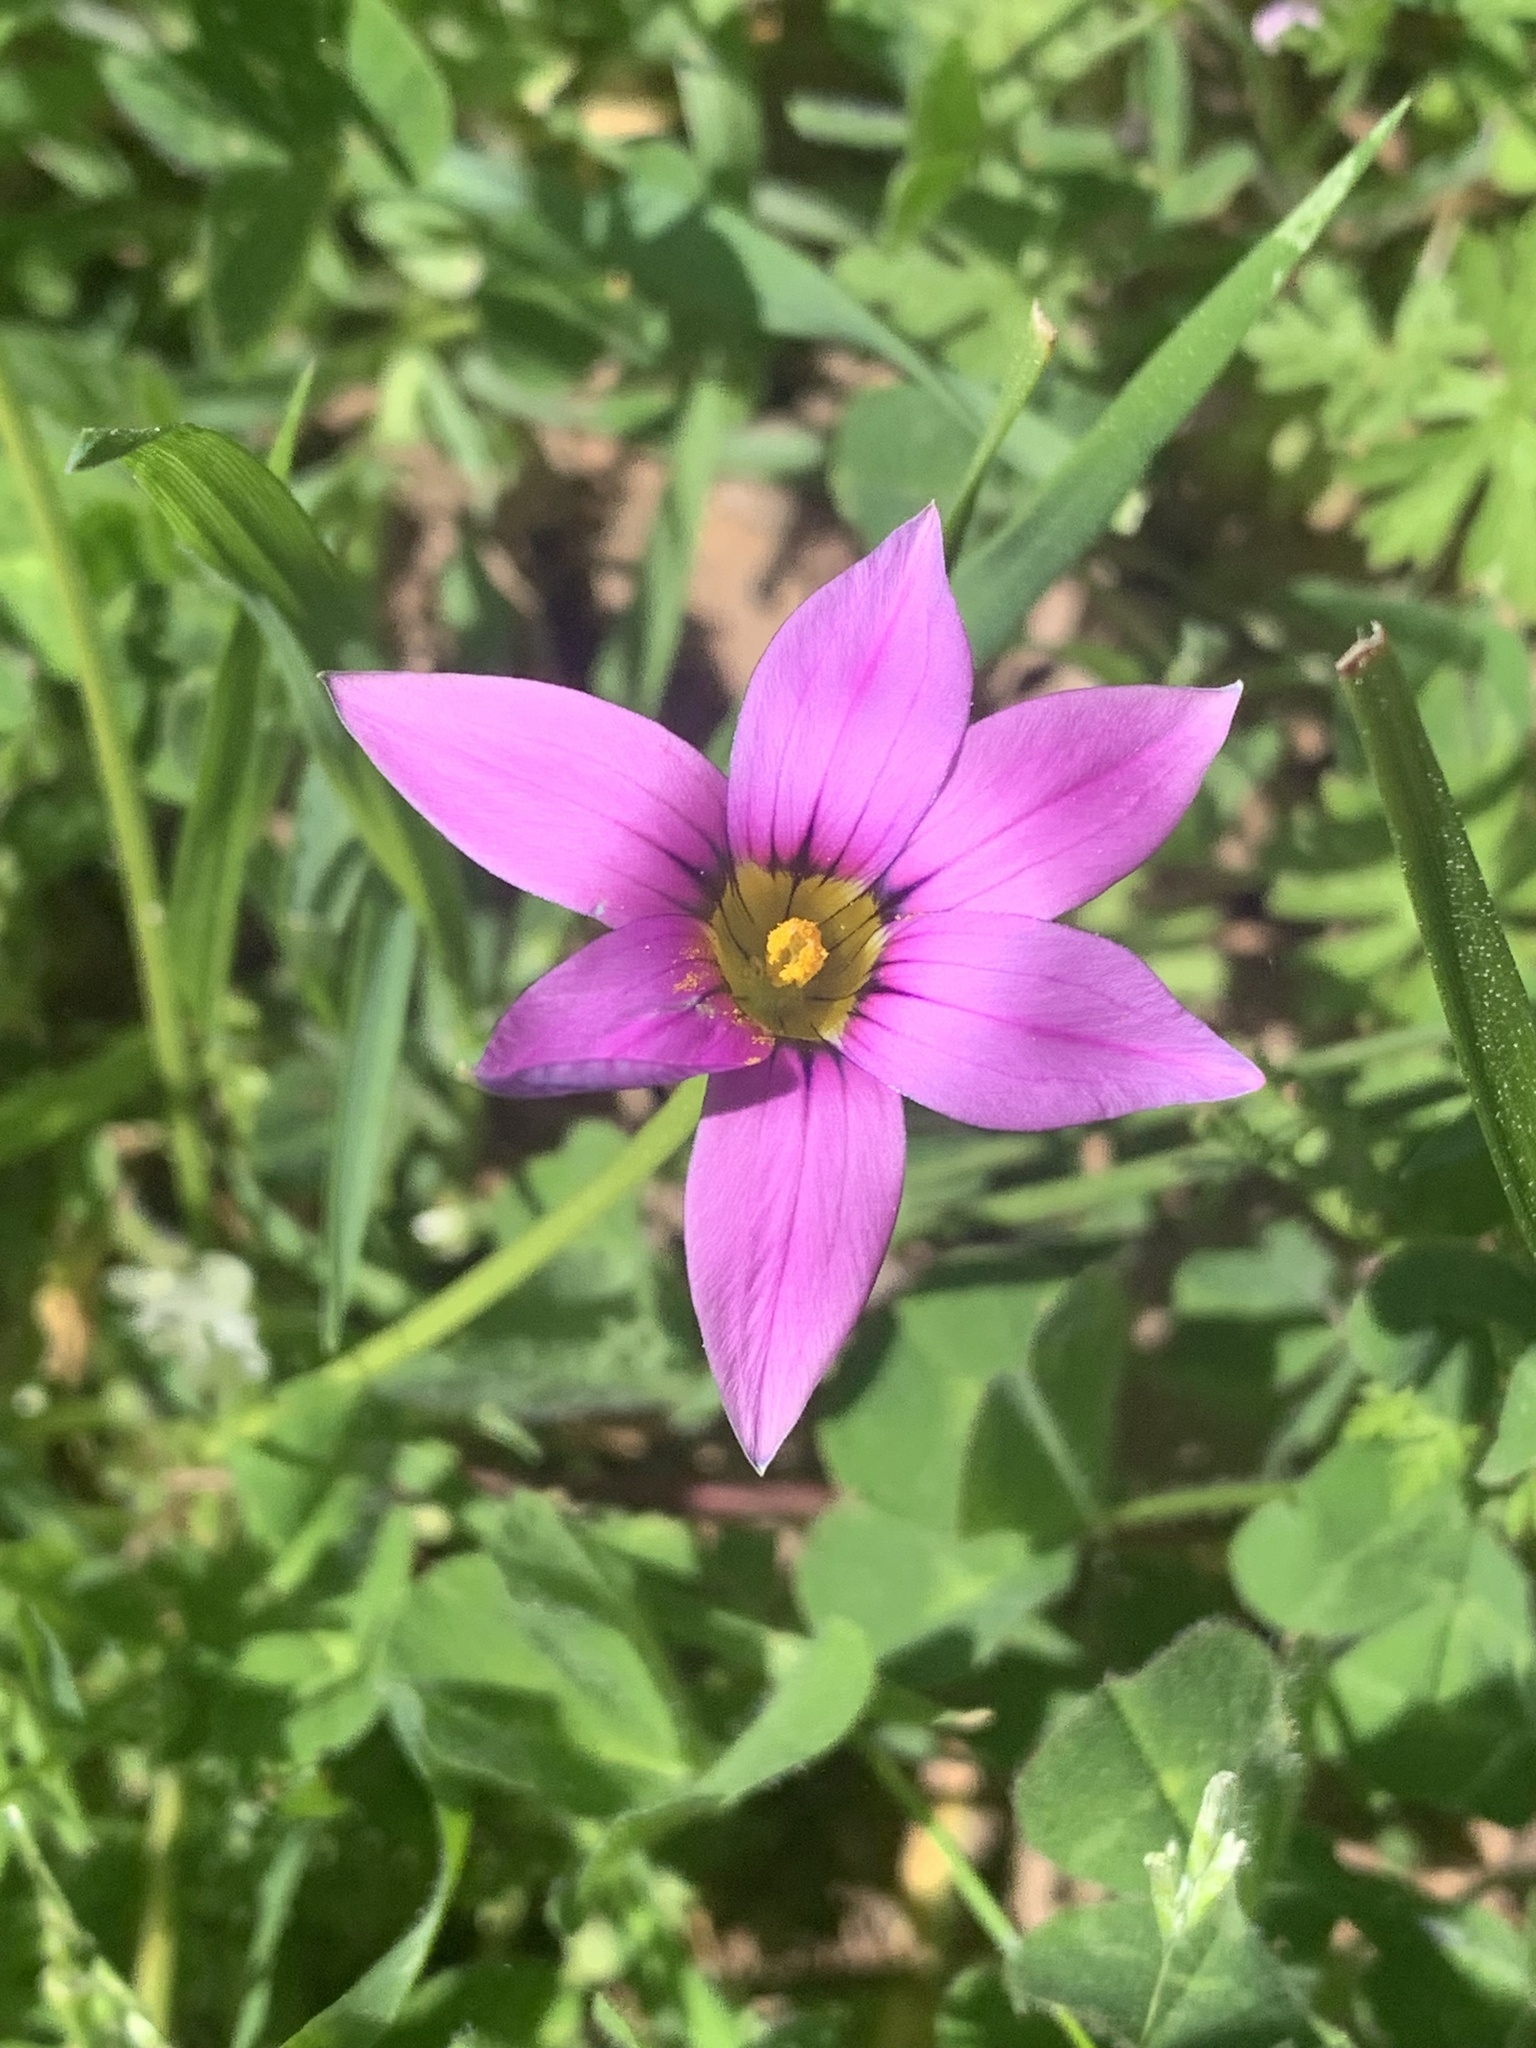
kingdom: Plantae
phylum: Tracheophyta
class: Liliopsida
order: Asparagales
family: Iridaceae
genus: Romulea
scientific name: Romulea rosea
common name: Oniongrass
